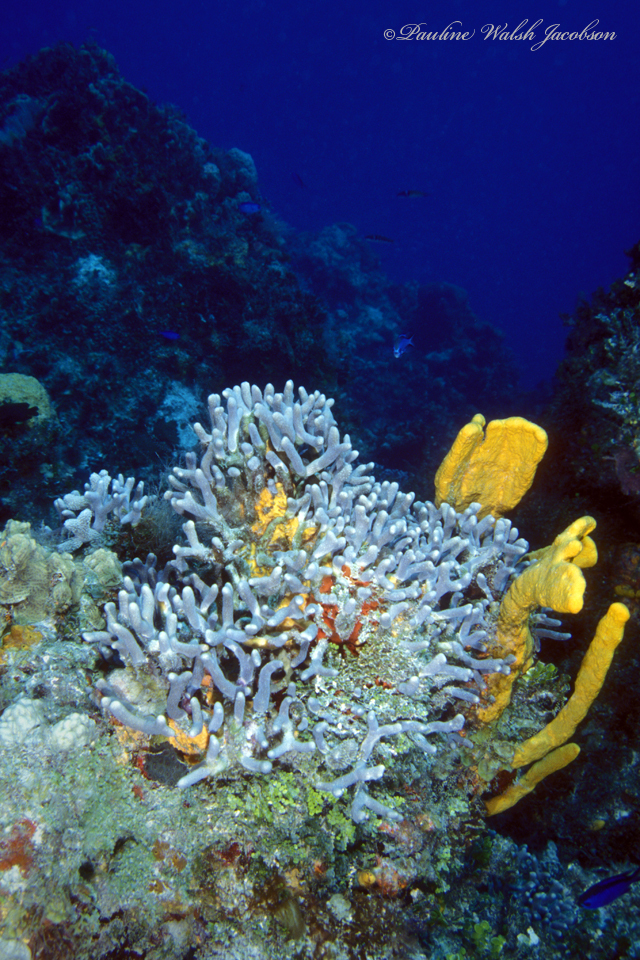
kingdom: Animalia
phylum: Cnidaria
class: Anthozoa
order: Scleractinia
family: Poritidae
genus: Porites
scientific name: Porites porites
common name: Finger coral
